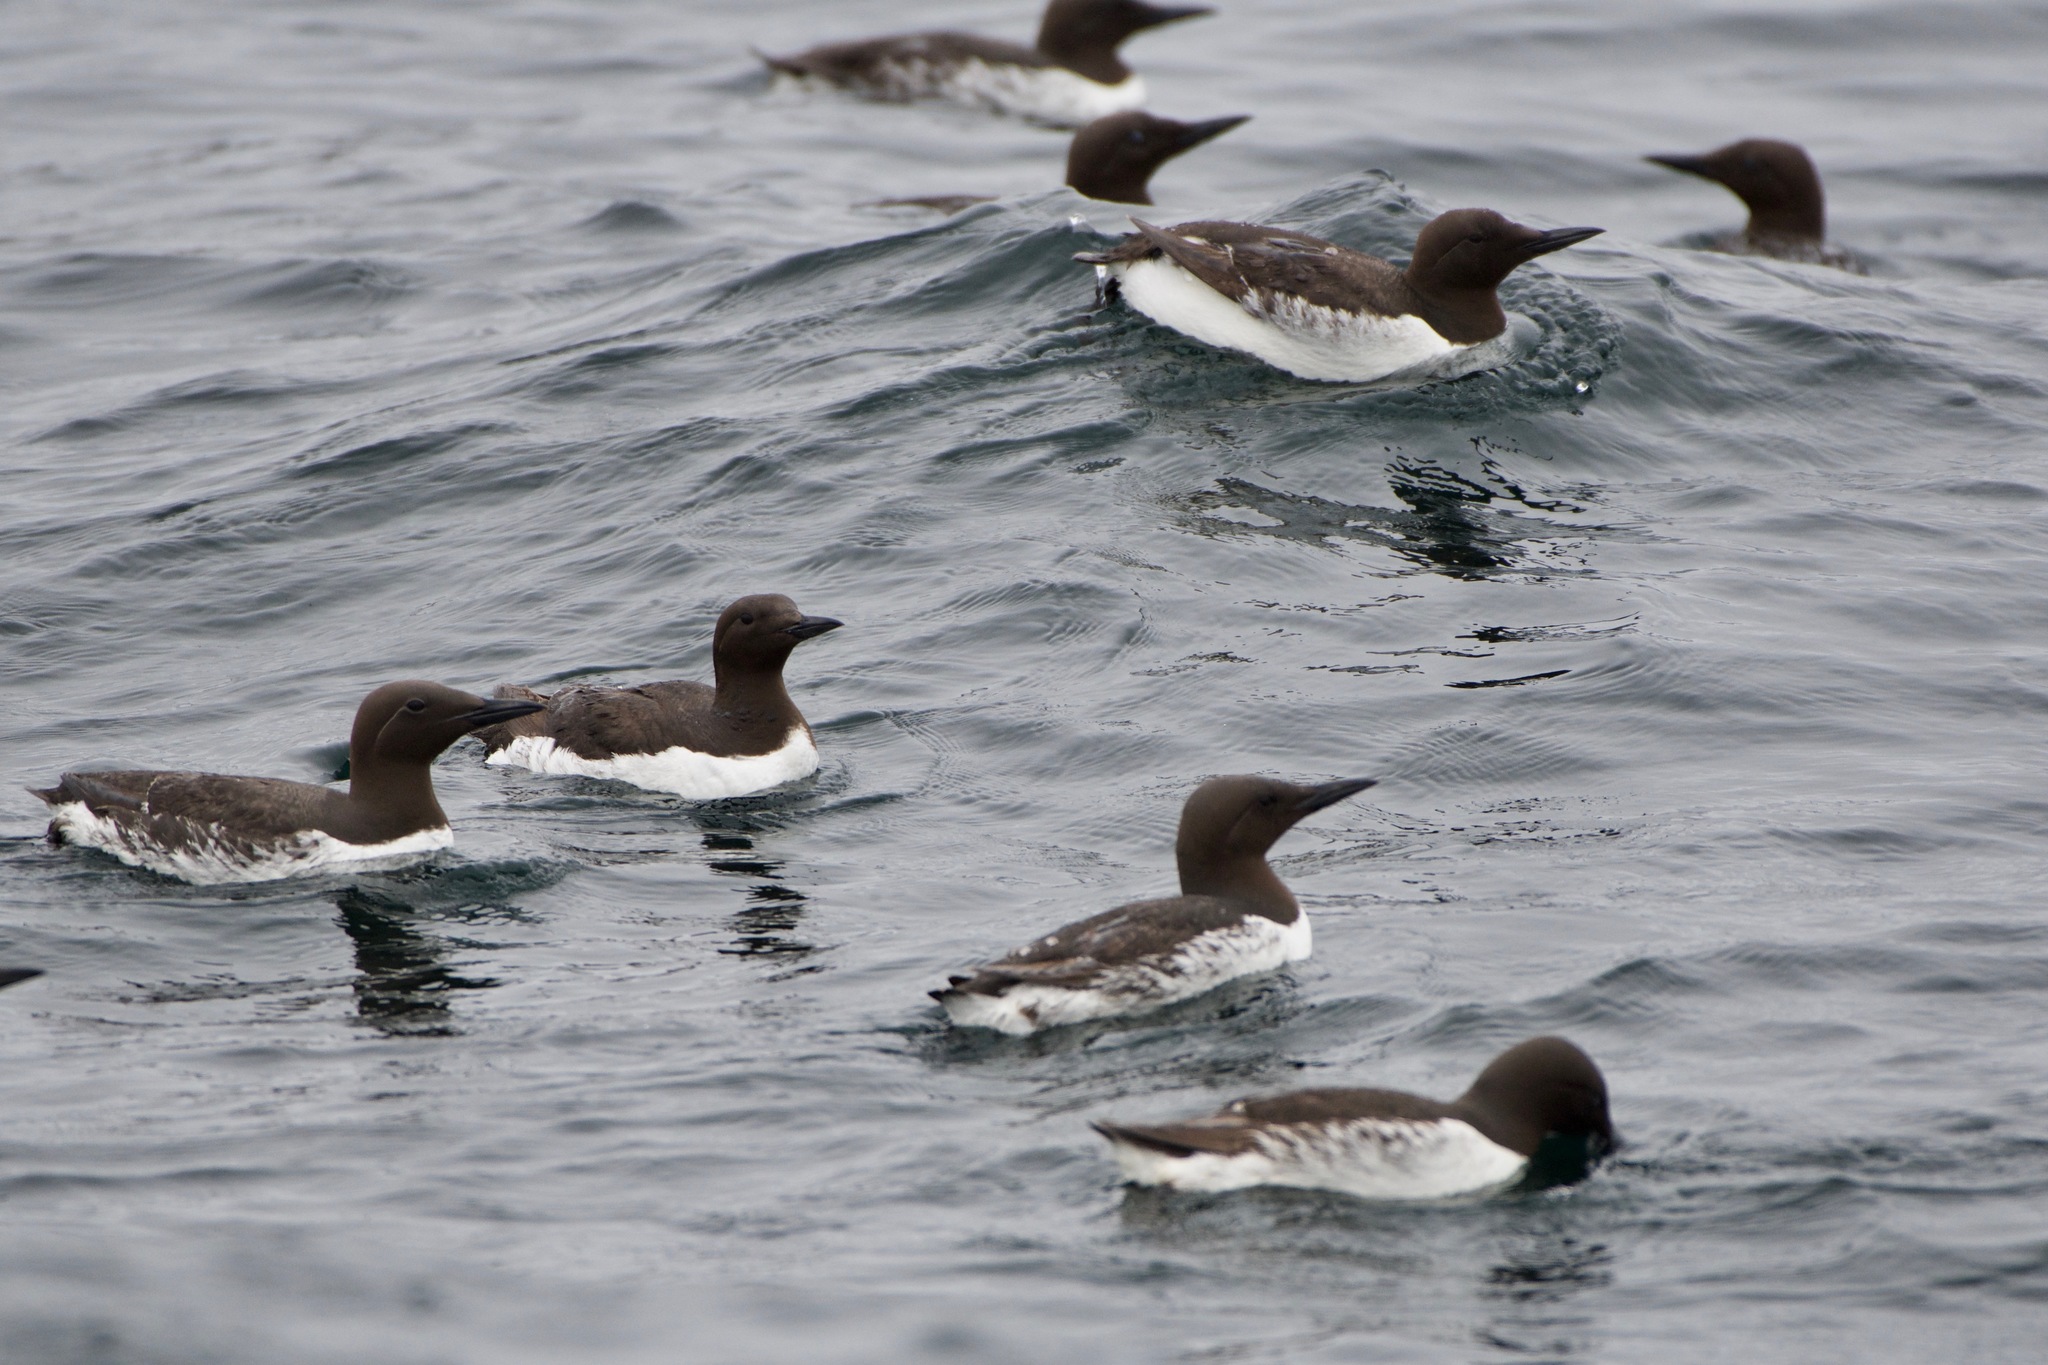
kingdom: Animalia
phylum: Chordata
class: Aves
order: Charadriiformes
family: Alcidae
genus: Uria
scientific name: Uria aalge
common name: Common murre
